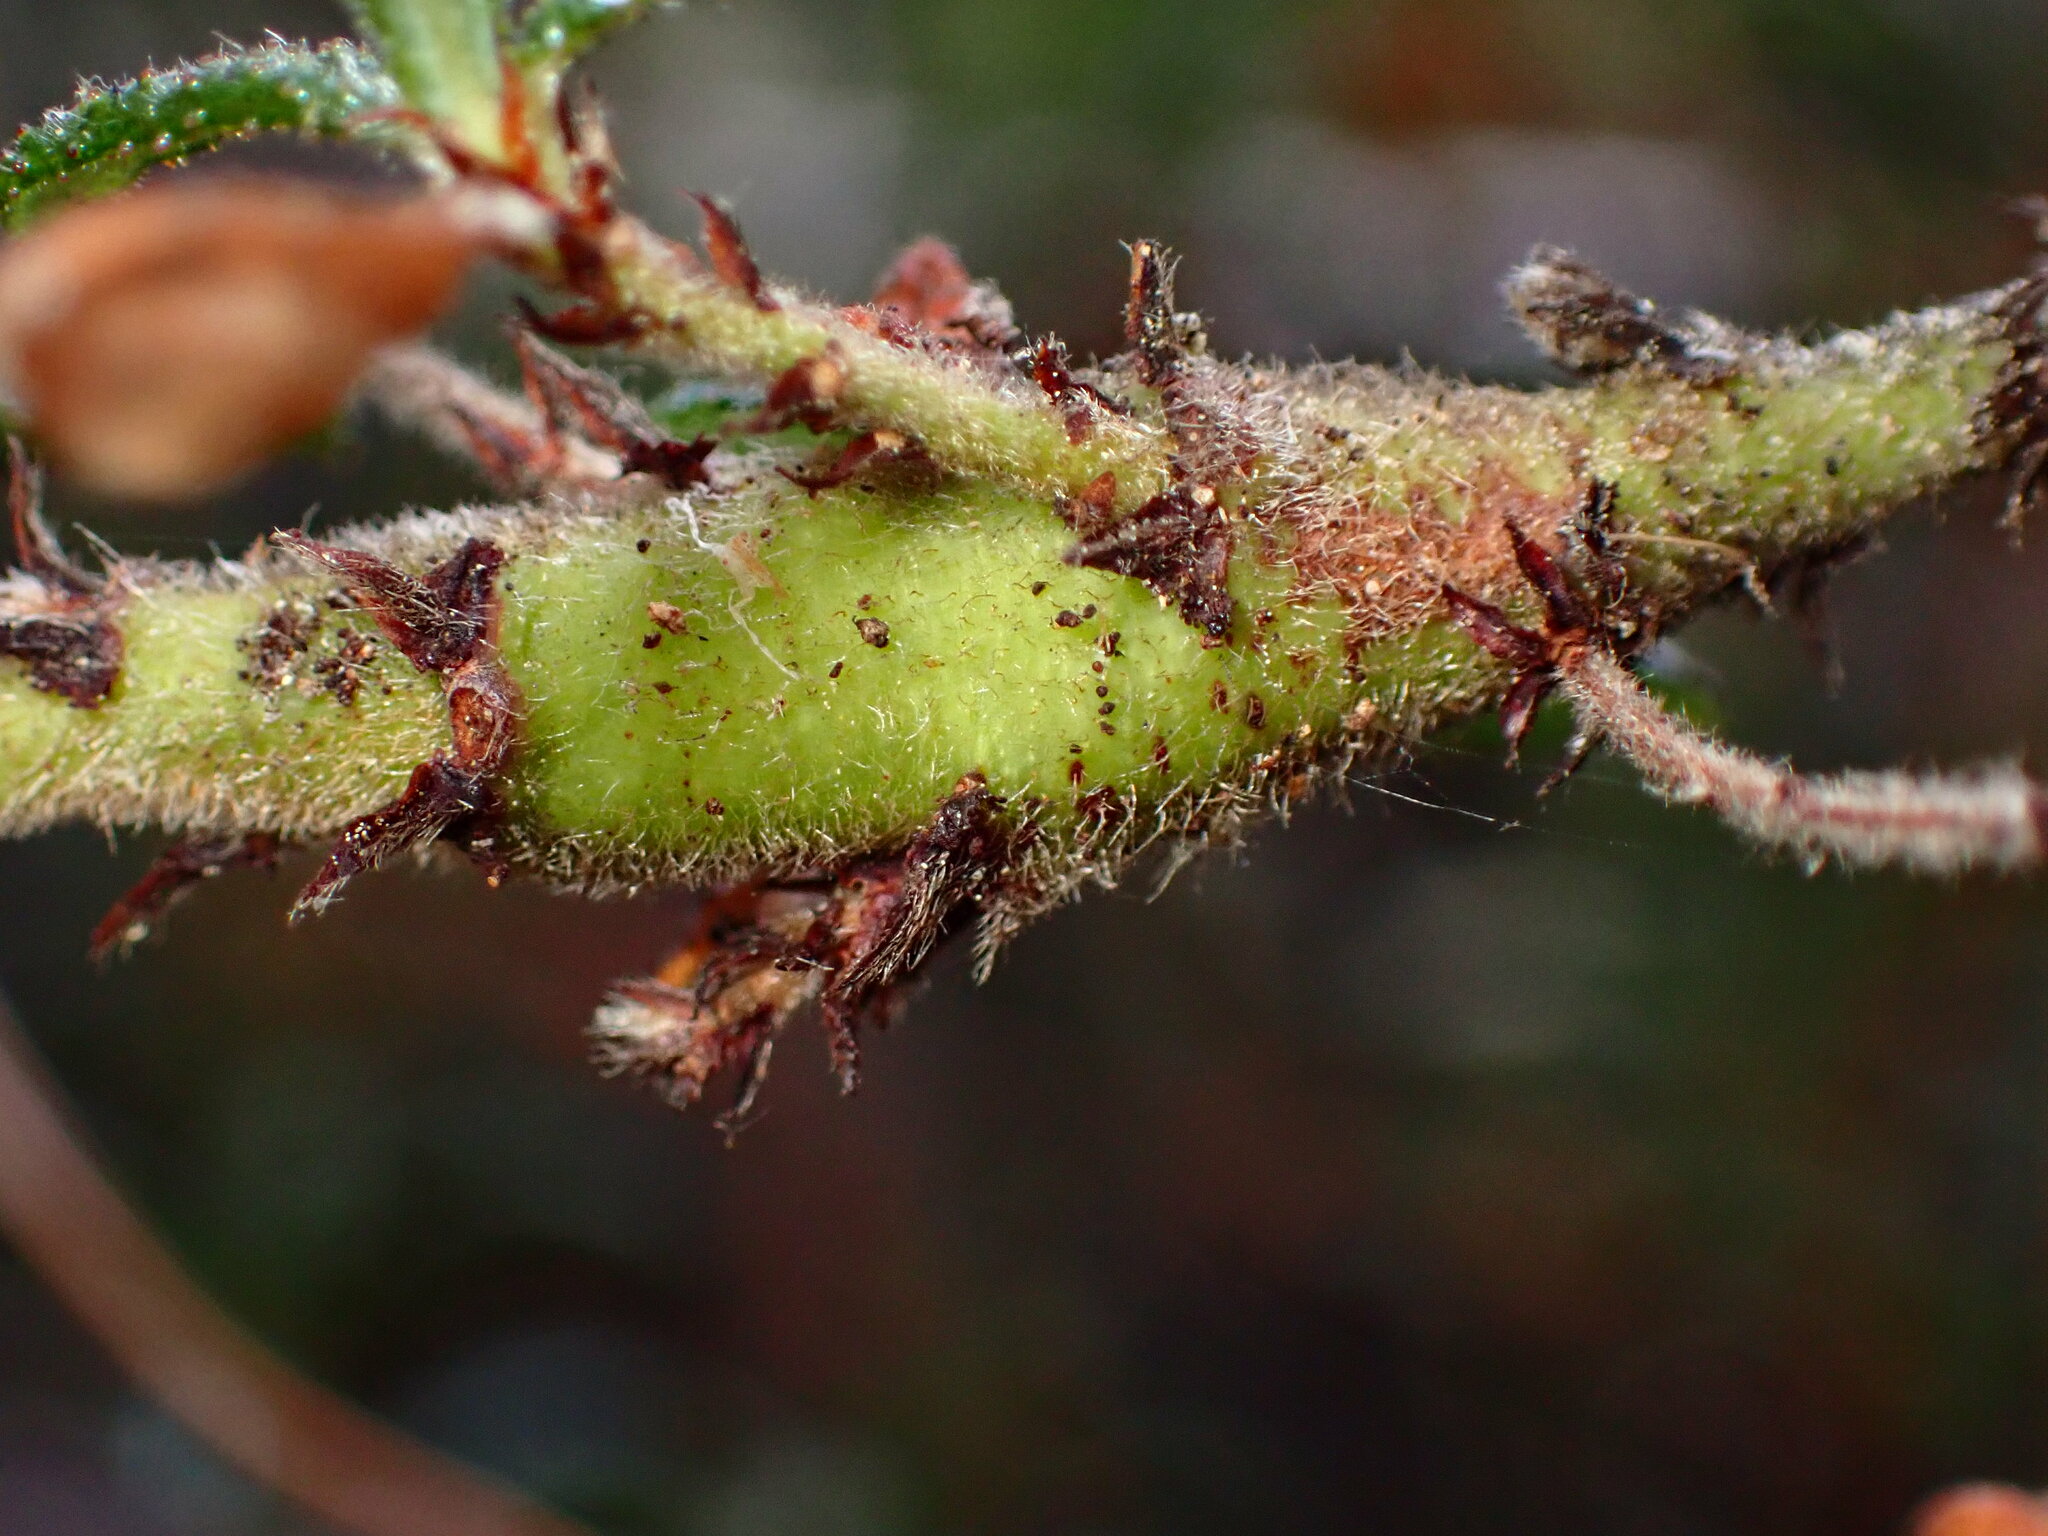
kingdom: Animalia
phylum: Arthropoda
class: Insecta
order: Lepidoptera
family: Cosmopterigidae
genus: Periploca
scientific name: Periploca ceanothiella
